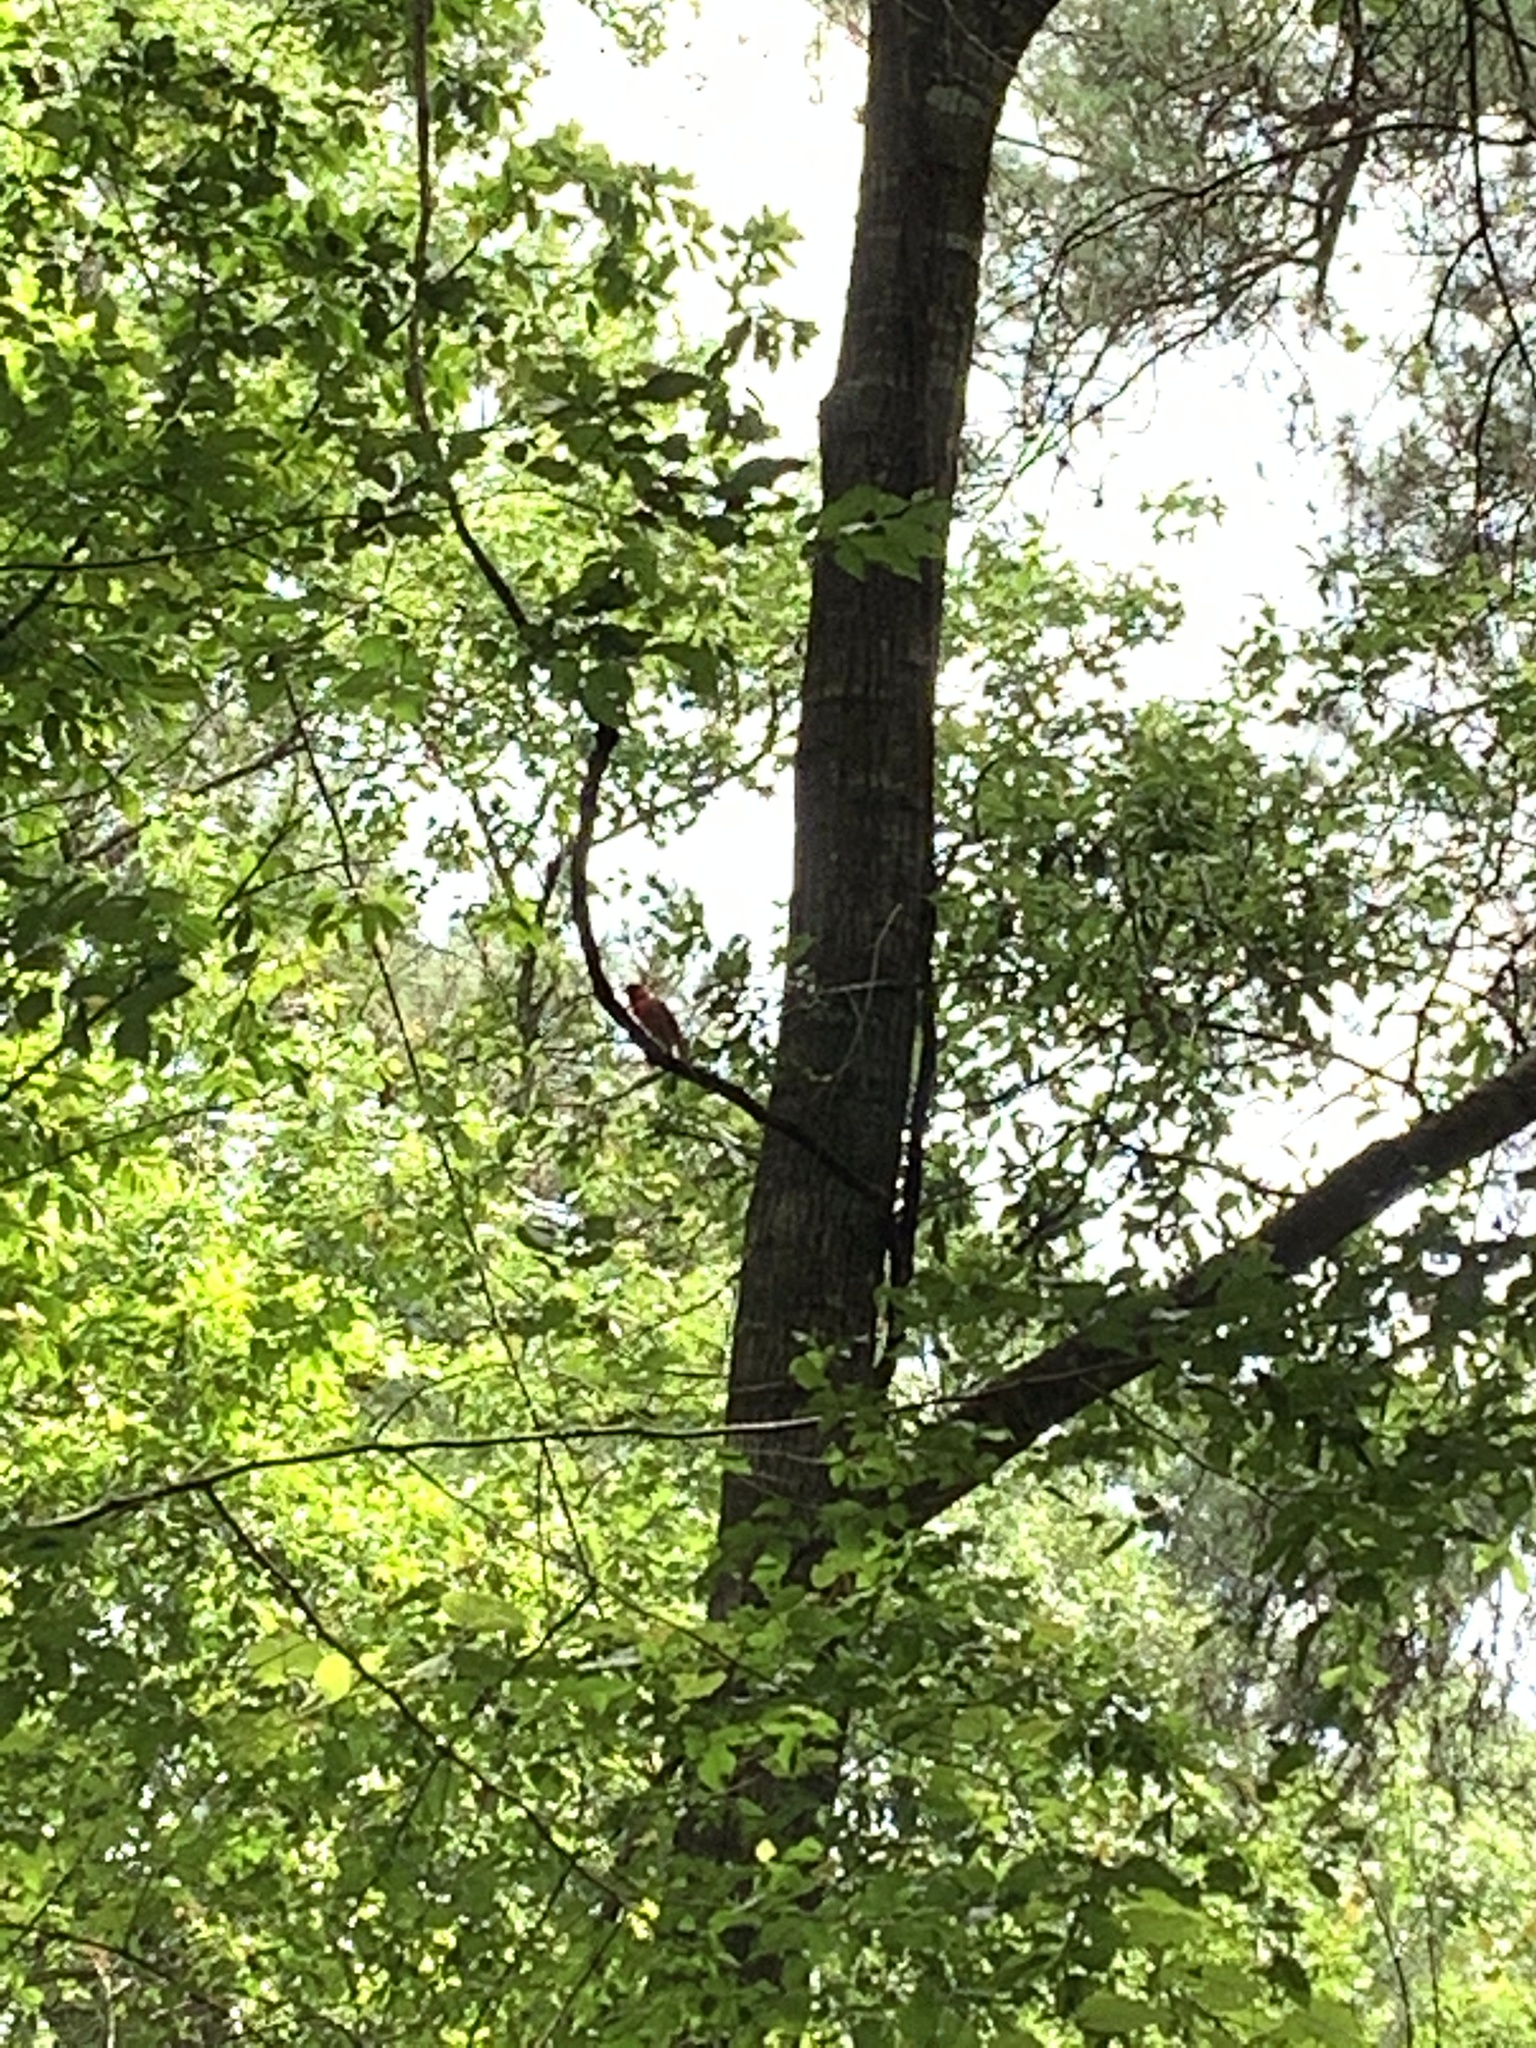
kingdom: Animalia
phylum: Chordata
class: Aves
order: Passeriformes
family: Cardinalidae
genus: Cardinalis
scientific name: Cardinalis cardinalis
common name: Northern cardinal
